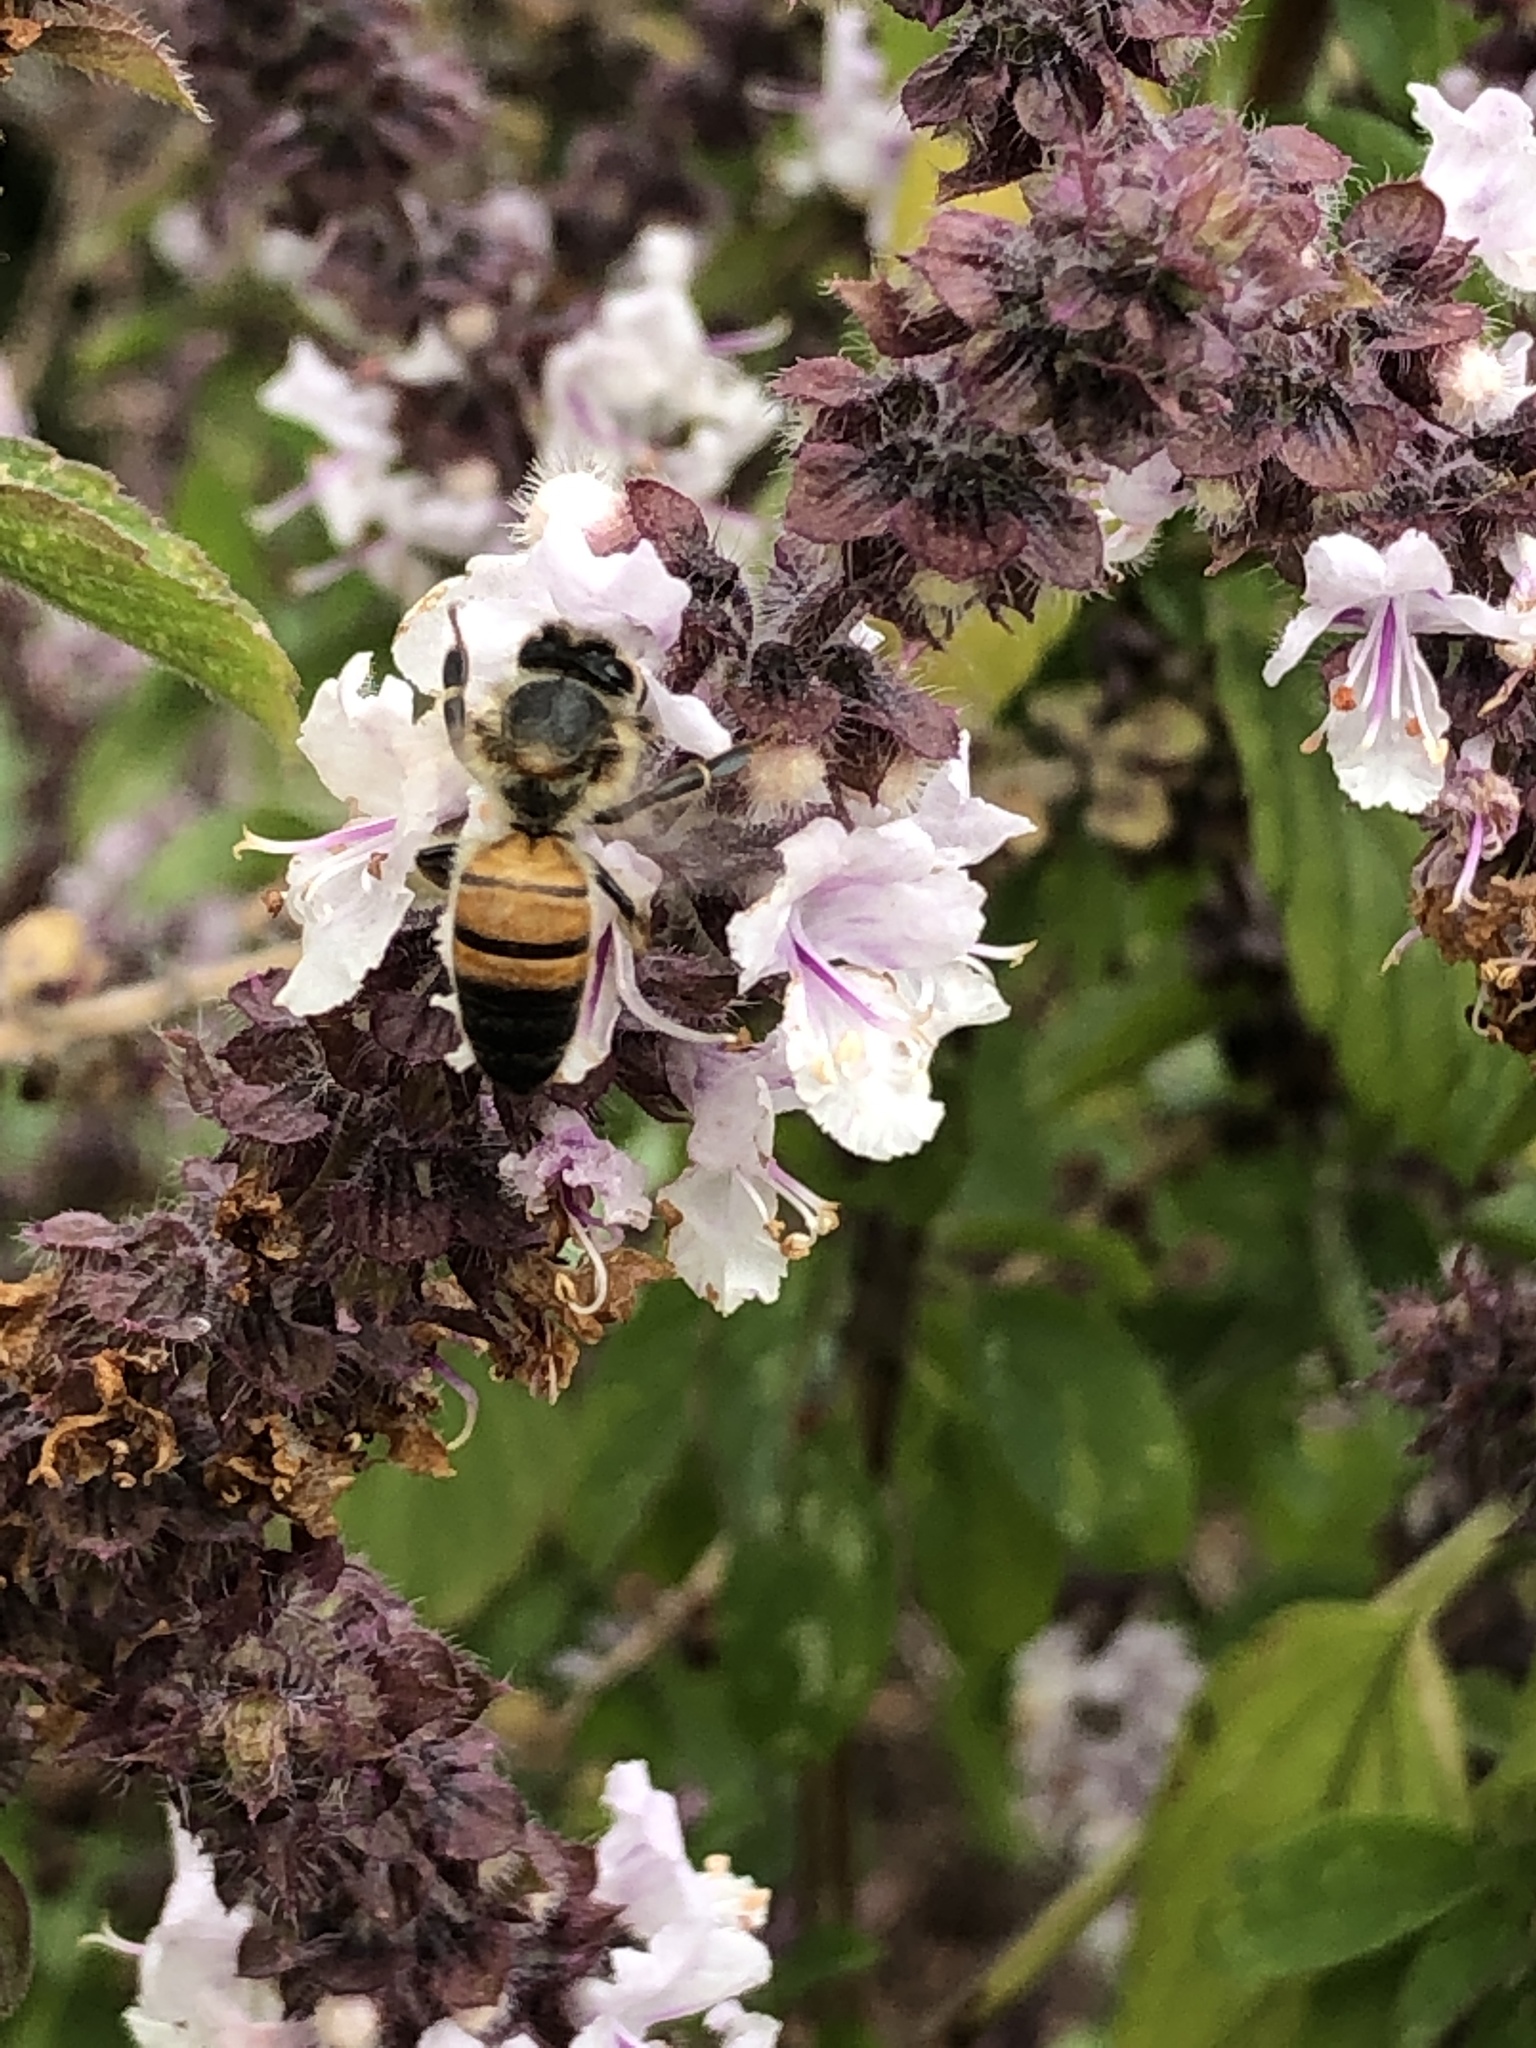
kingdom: Animalia
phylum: Arthropoda
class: Insecta
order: Hymenoptera
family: Apidae
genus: Apis
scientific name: Apis mellifera
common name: Honey bee
